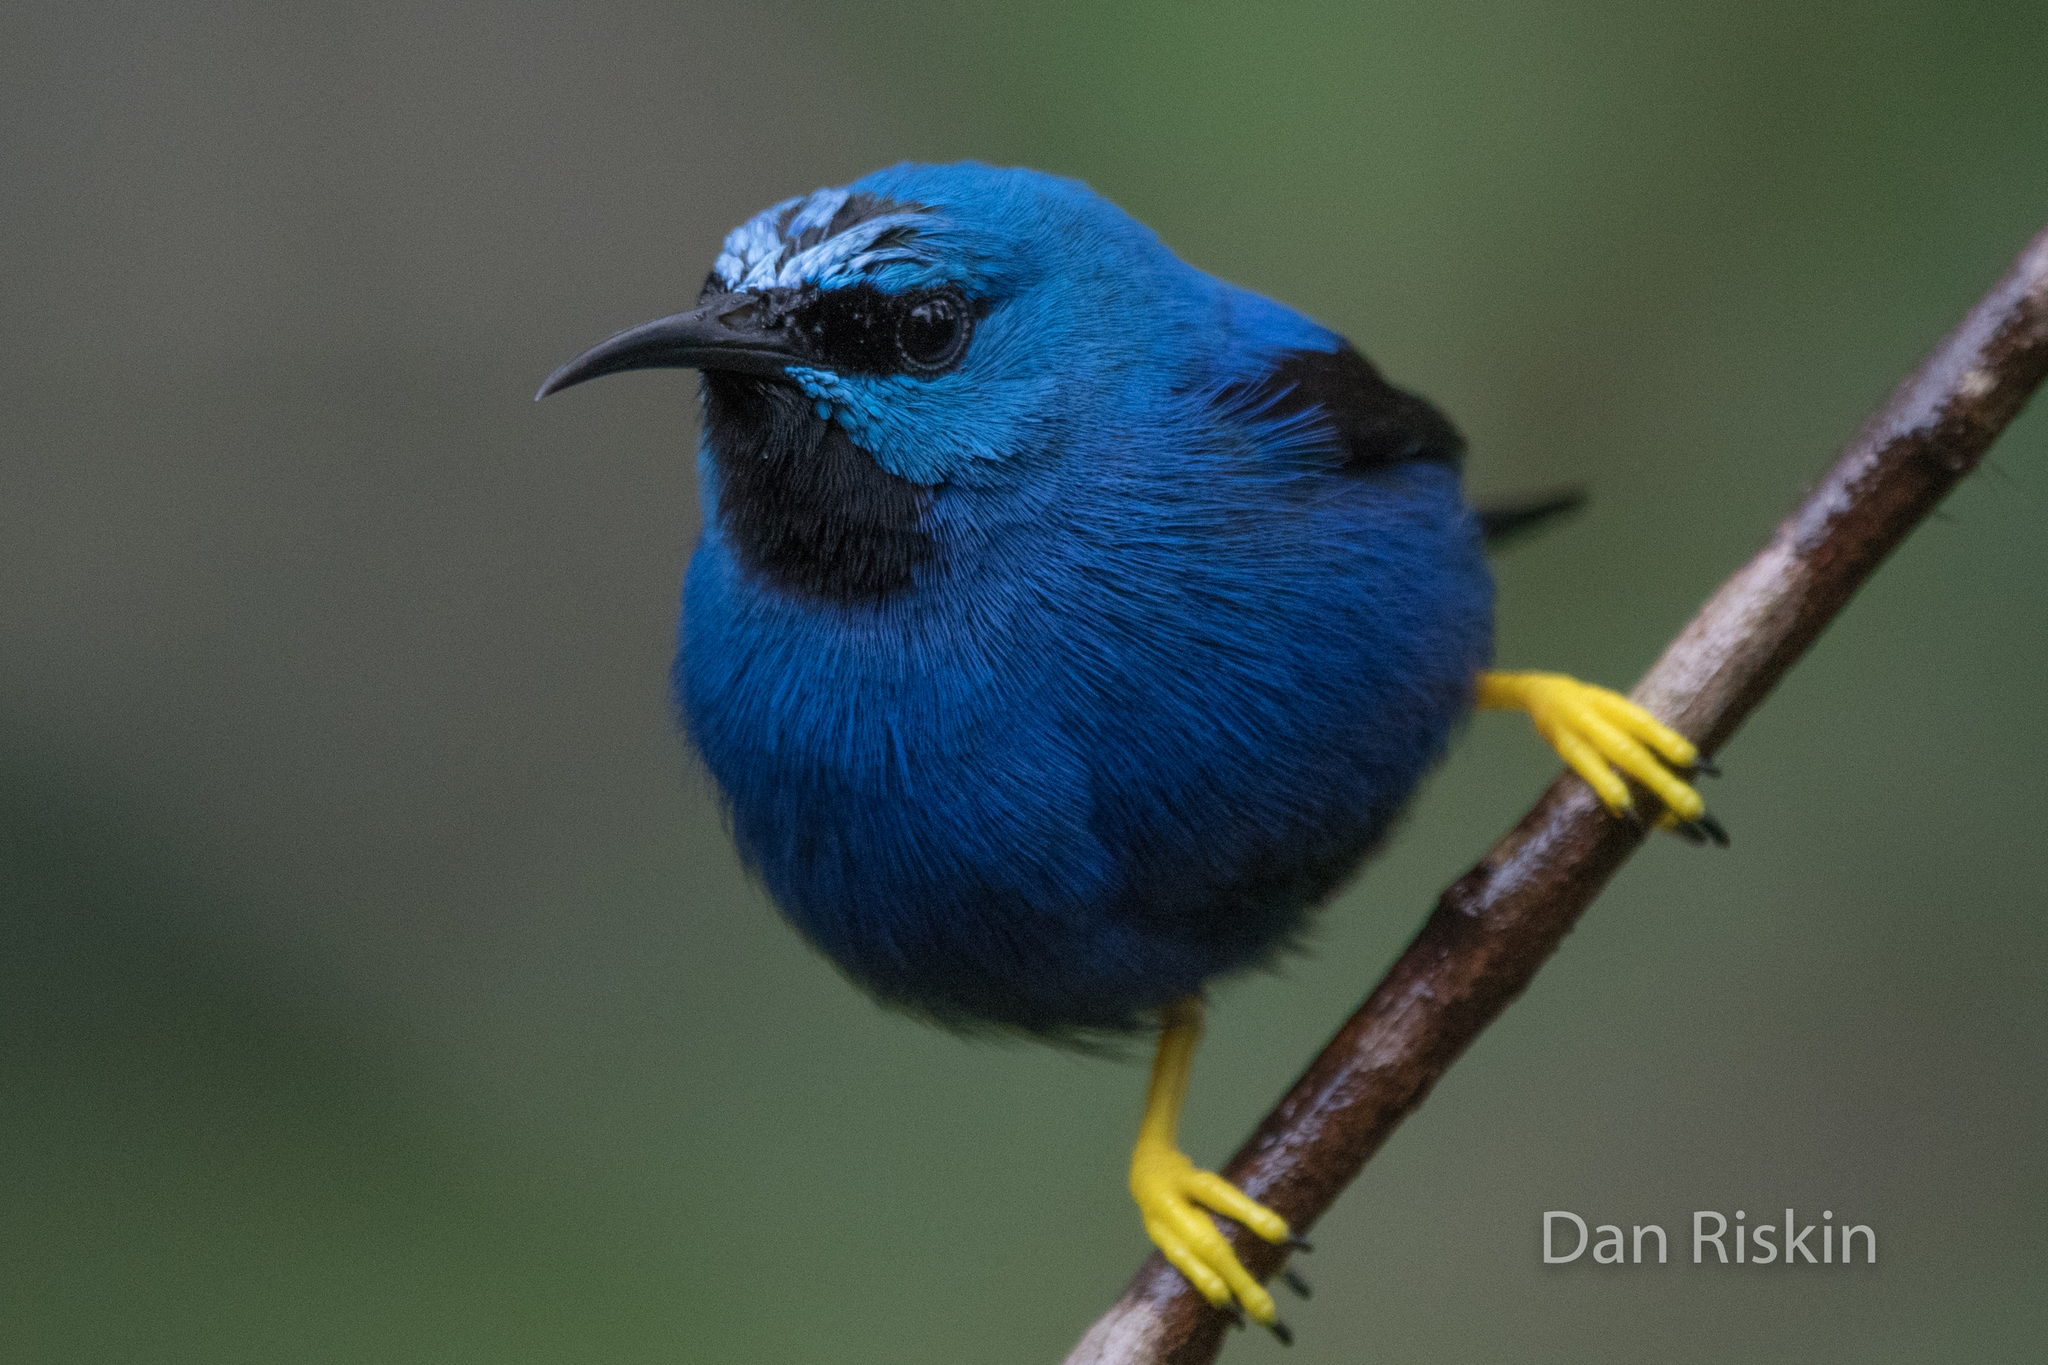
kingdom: Animalia
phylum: Chordata
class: Aves
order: Passeriformes
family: Thraupidae
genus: Cyanerpes
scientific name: Cyanerpes lucidus
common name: Shining honeycreeper
